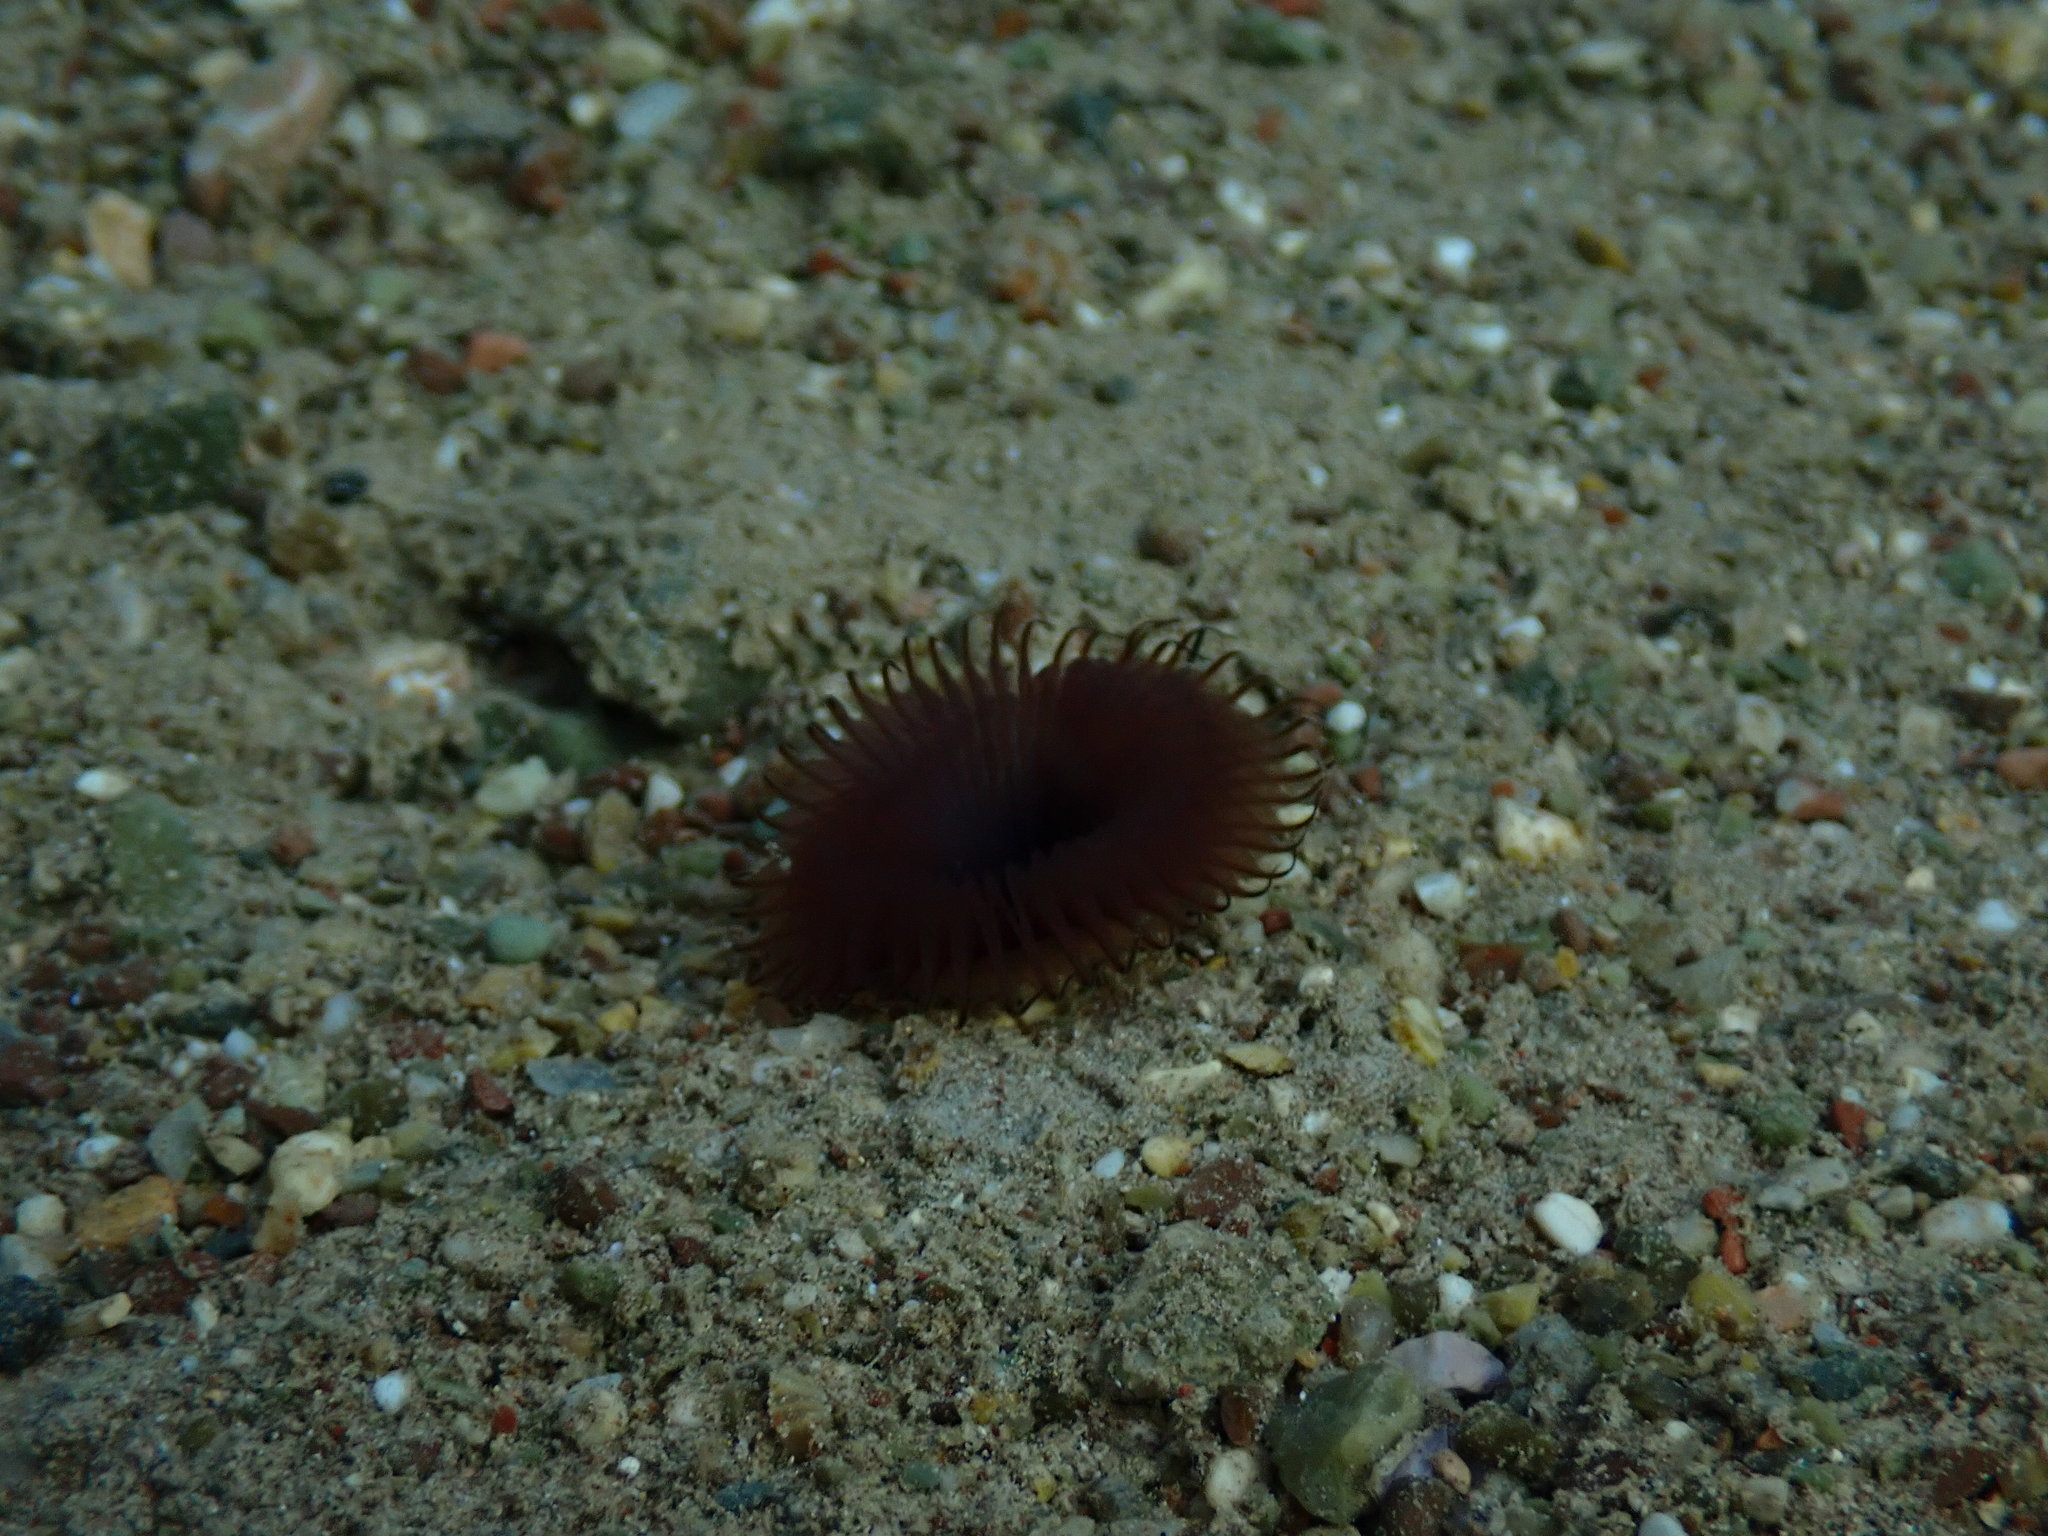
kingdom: Animalia
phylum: Annelida
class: Polychaeta
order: Sabellida
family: Sabellidae
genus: Myxicola
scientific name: Myxicola infundibulum
